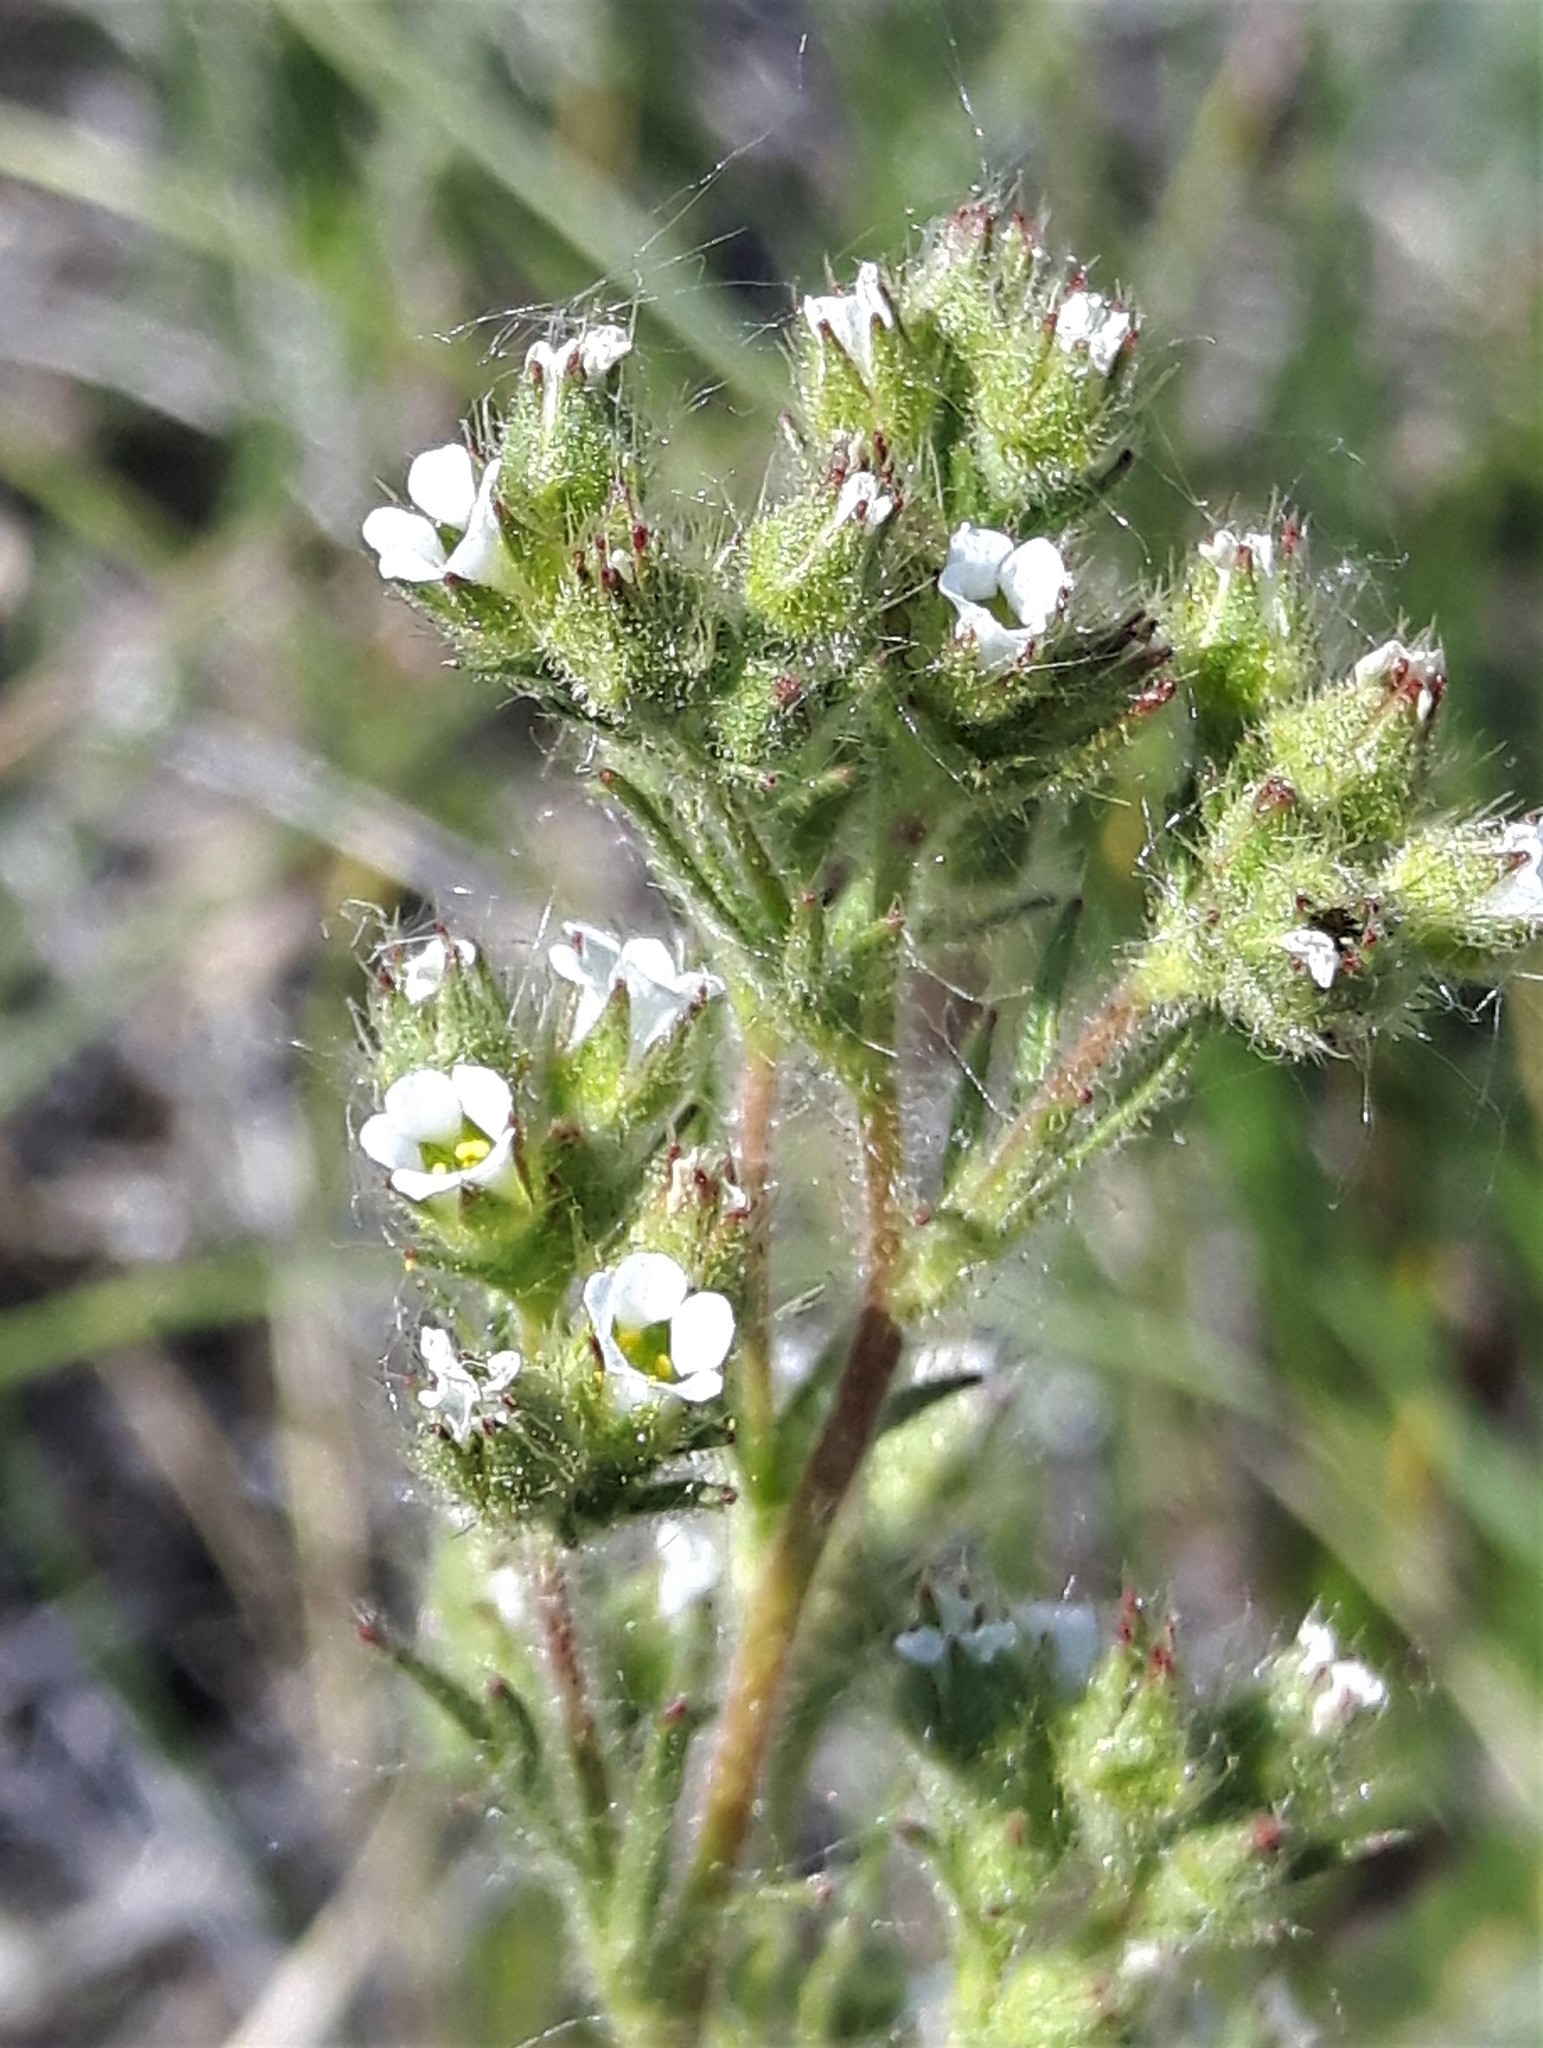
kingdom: Plantae
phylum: Tracheophyta
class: Magnoliopsida
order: Rosales
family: Rosaceae
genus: Chamaerhodos
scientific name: Chamaerhodos erecta
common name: American chamaerhodos
